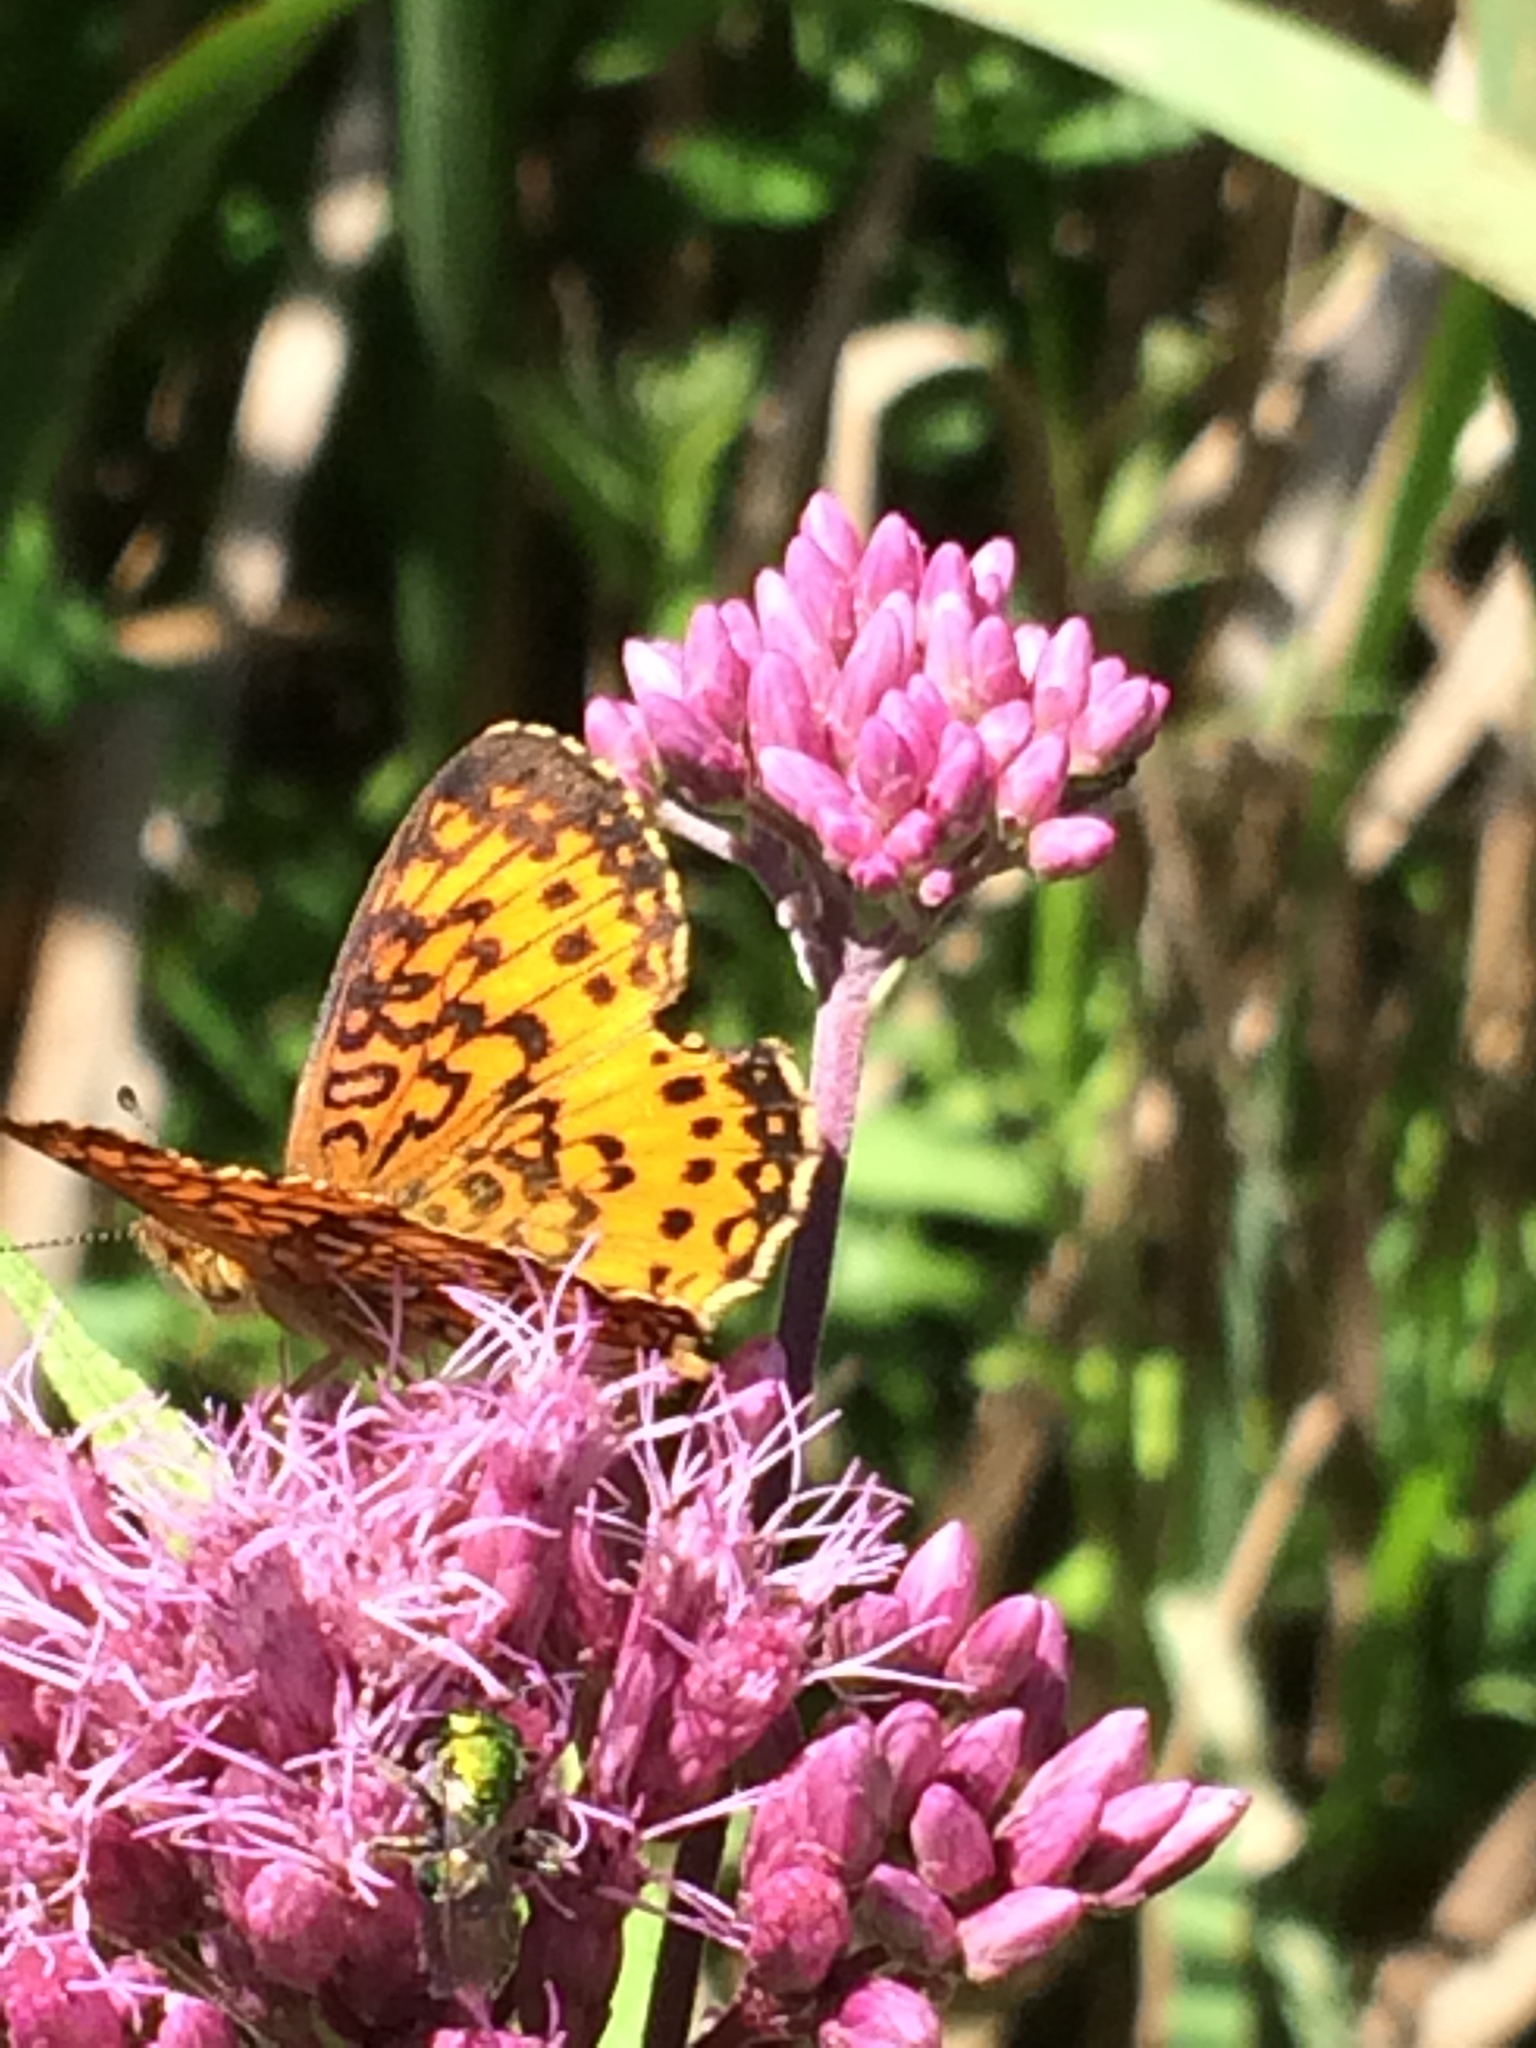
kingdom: Animalia
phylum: Arthropoda
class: Insecta
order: Lepidoptera
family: Nymphalidae
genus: Boloria
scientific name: Boloria
